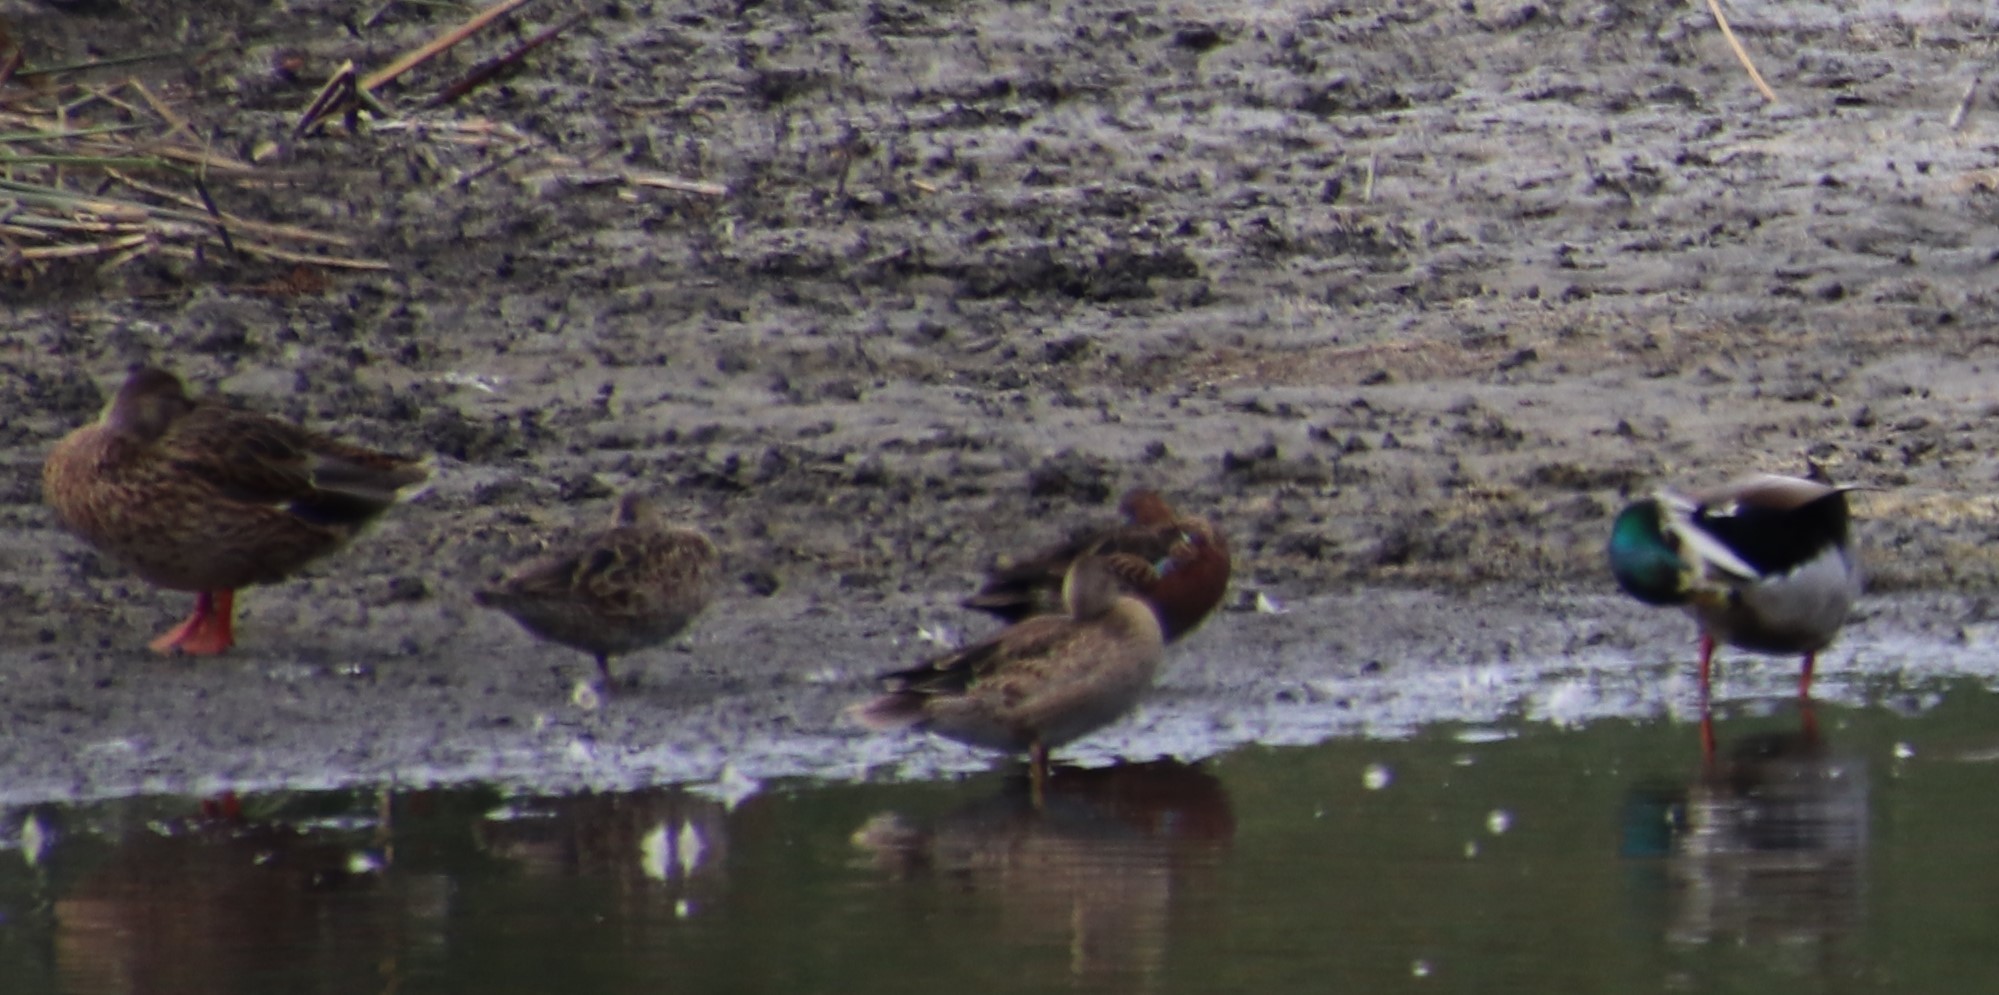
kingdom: Animalia
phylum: Chordata
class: Aves
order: Anseriformes
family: Anatidae
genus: Spatula
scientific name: Spatula cyanoptera
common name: Cinnamon teal
